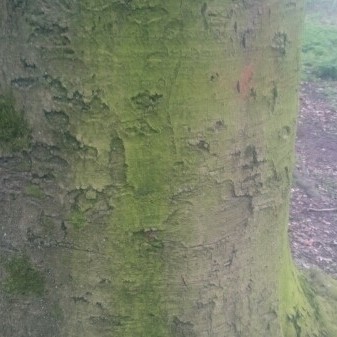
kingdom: Plantae
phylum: Tracheophyta
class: Magnoliopsida
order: Fagales
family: Fagaceae
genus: Fagus
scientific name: Fagus sylvatica
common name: Beech
